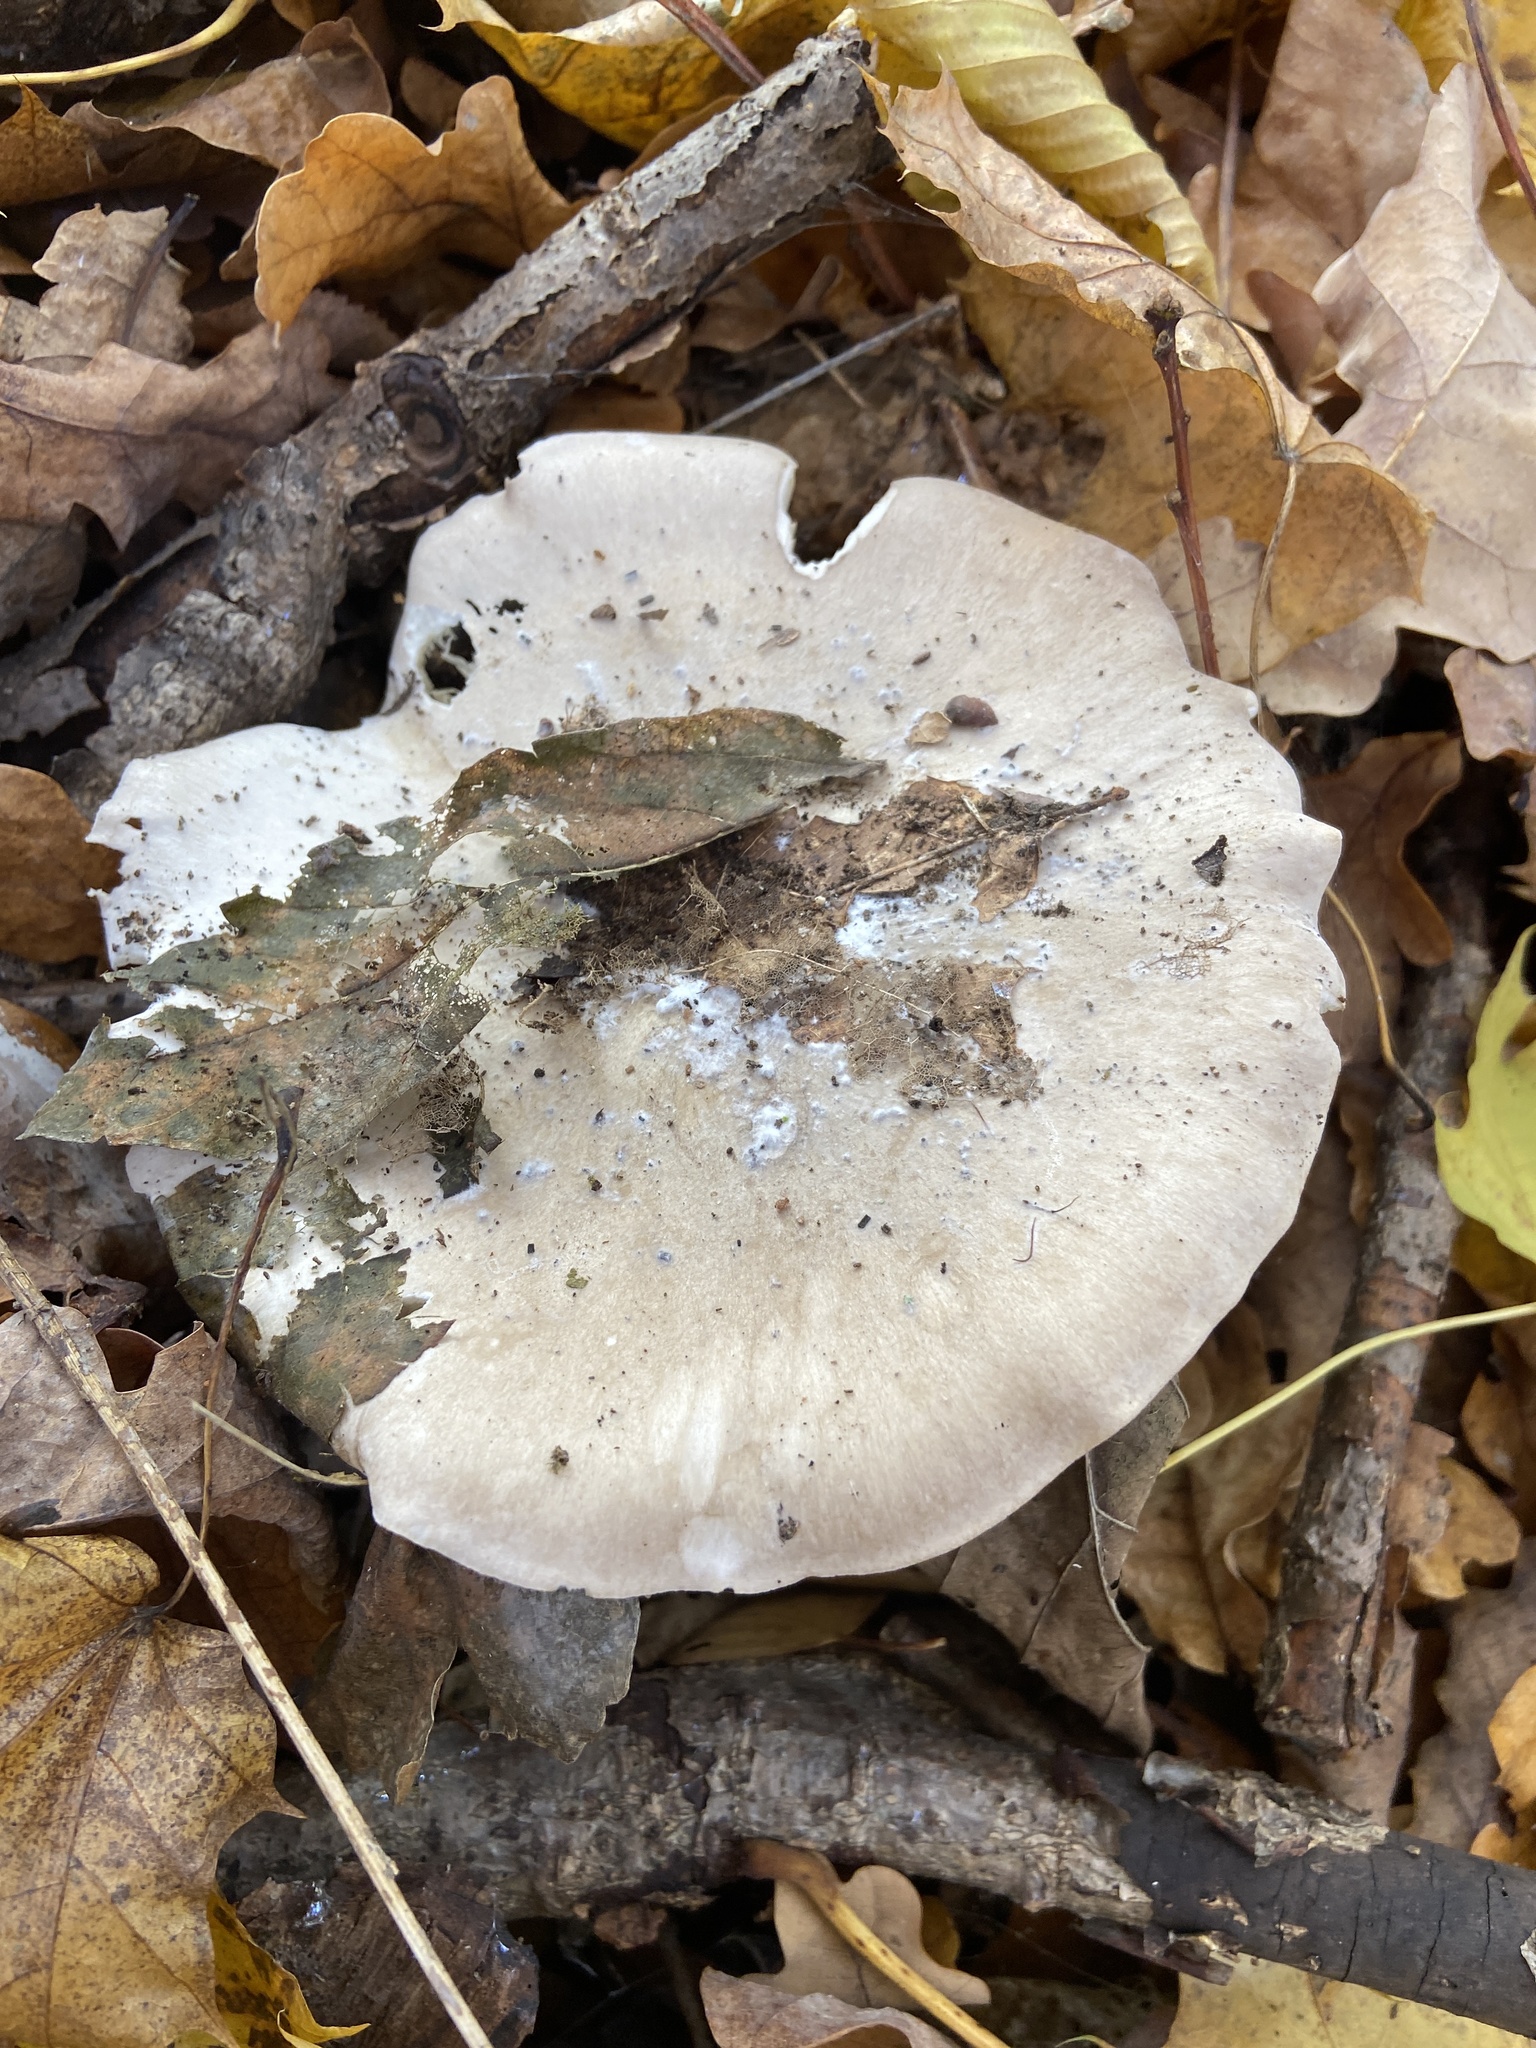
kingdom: Fungi
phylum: Basidiomycota
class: Agaricomycetes
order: Agaricales
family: Tricholomataceae
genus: Clitocybe
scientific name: Clitocybe nebularis
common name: Clouded agaric
